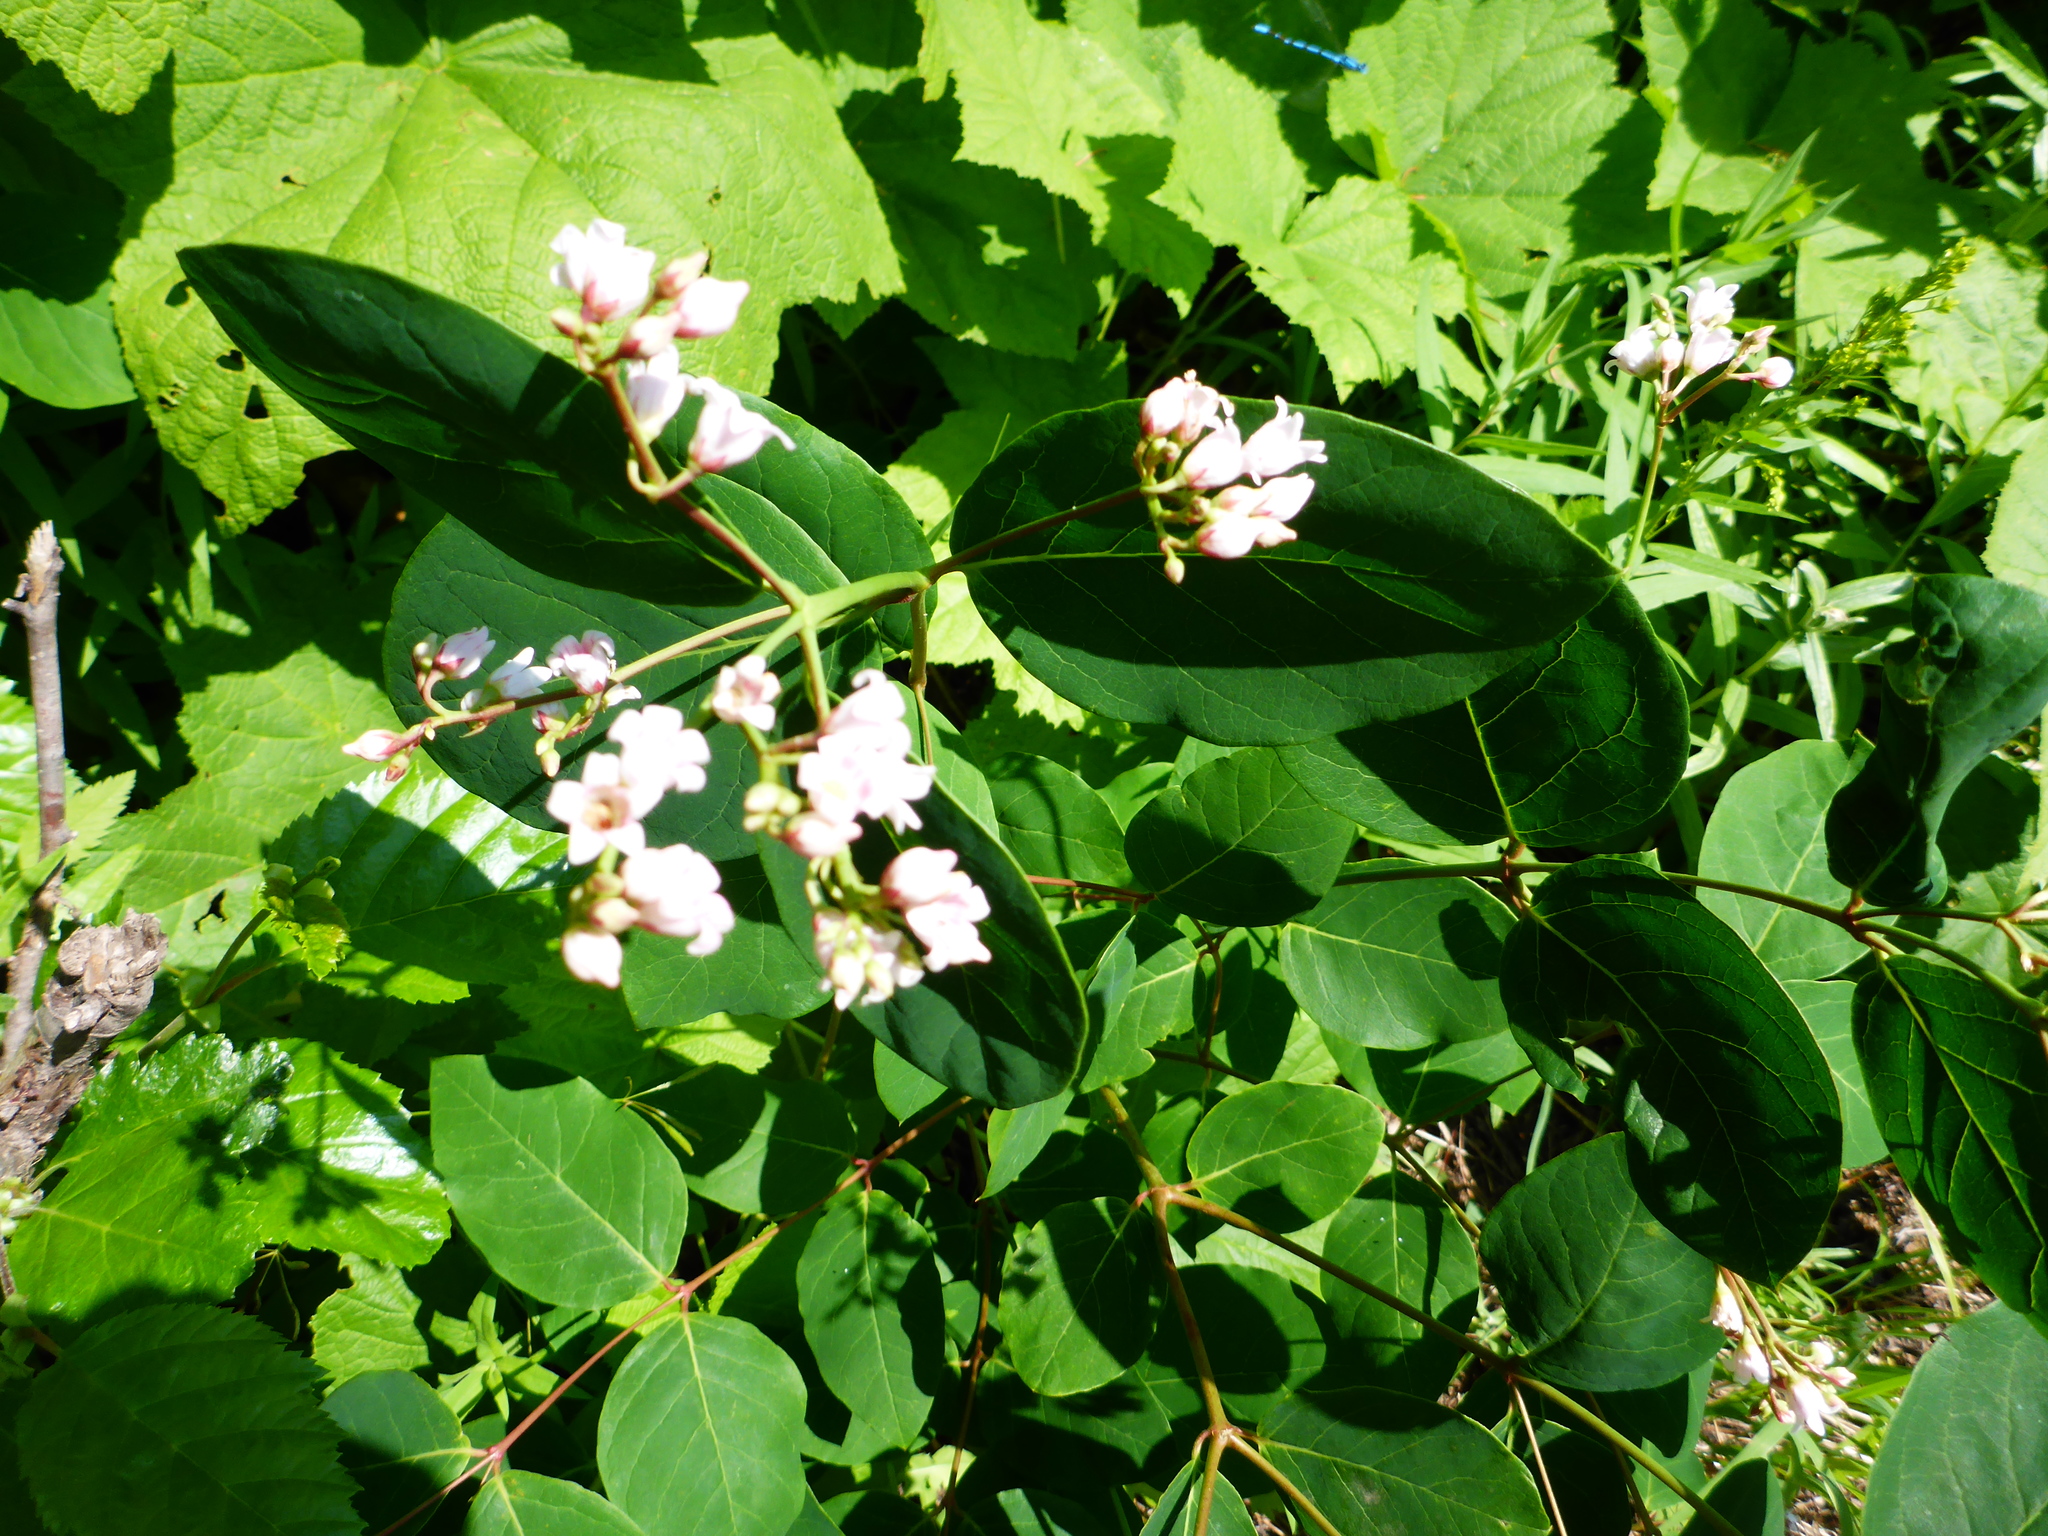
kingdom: Plantae
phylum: Tracheophyta
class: Magnoliopsida
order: Gentianales
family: Apocynaceae
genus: Apocynum
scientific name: Apocynum androsaemifolium
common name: Spreading dogbane
